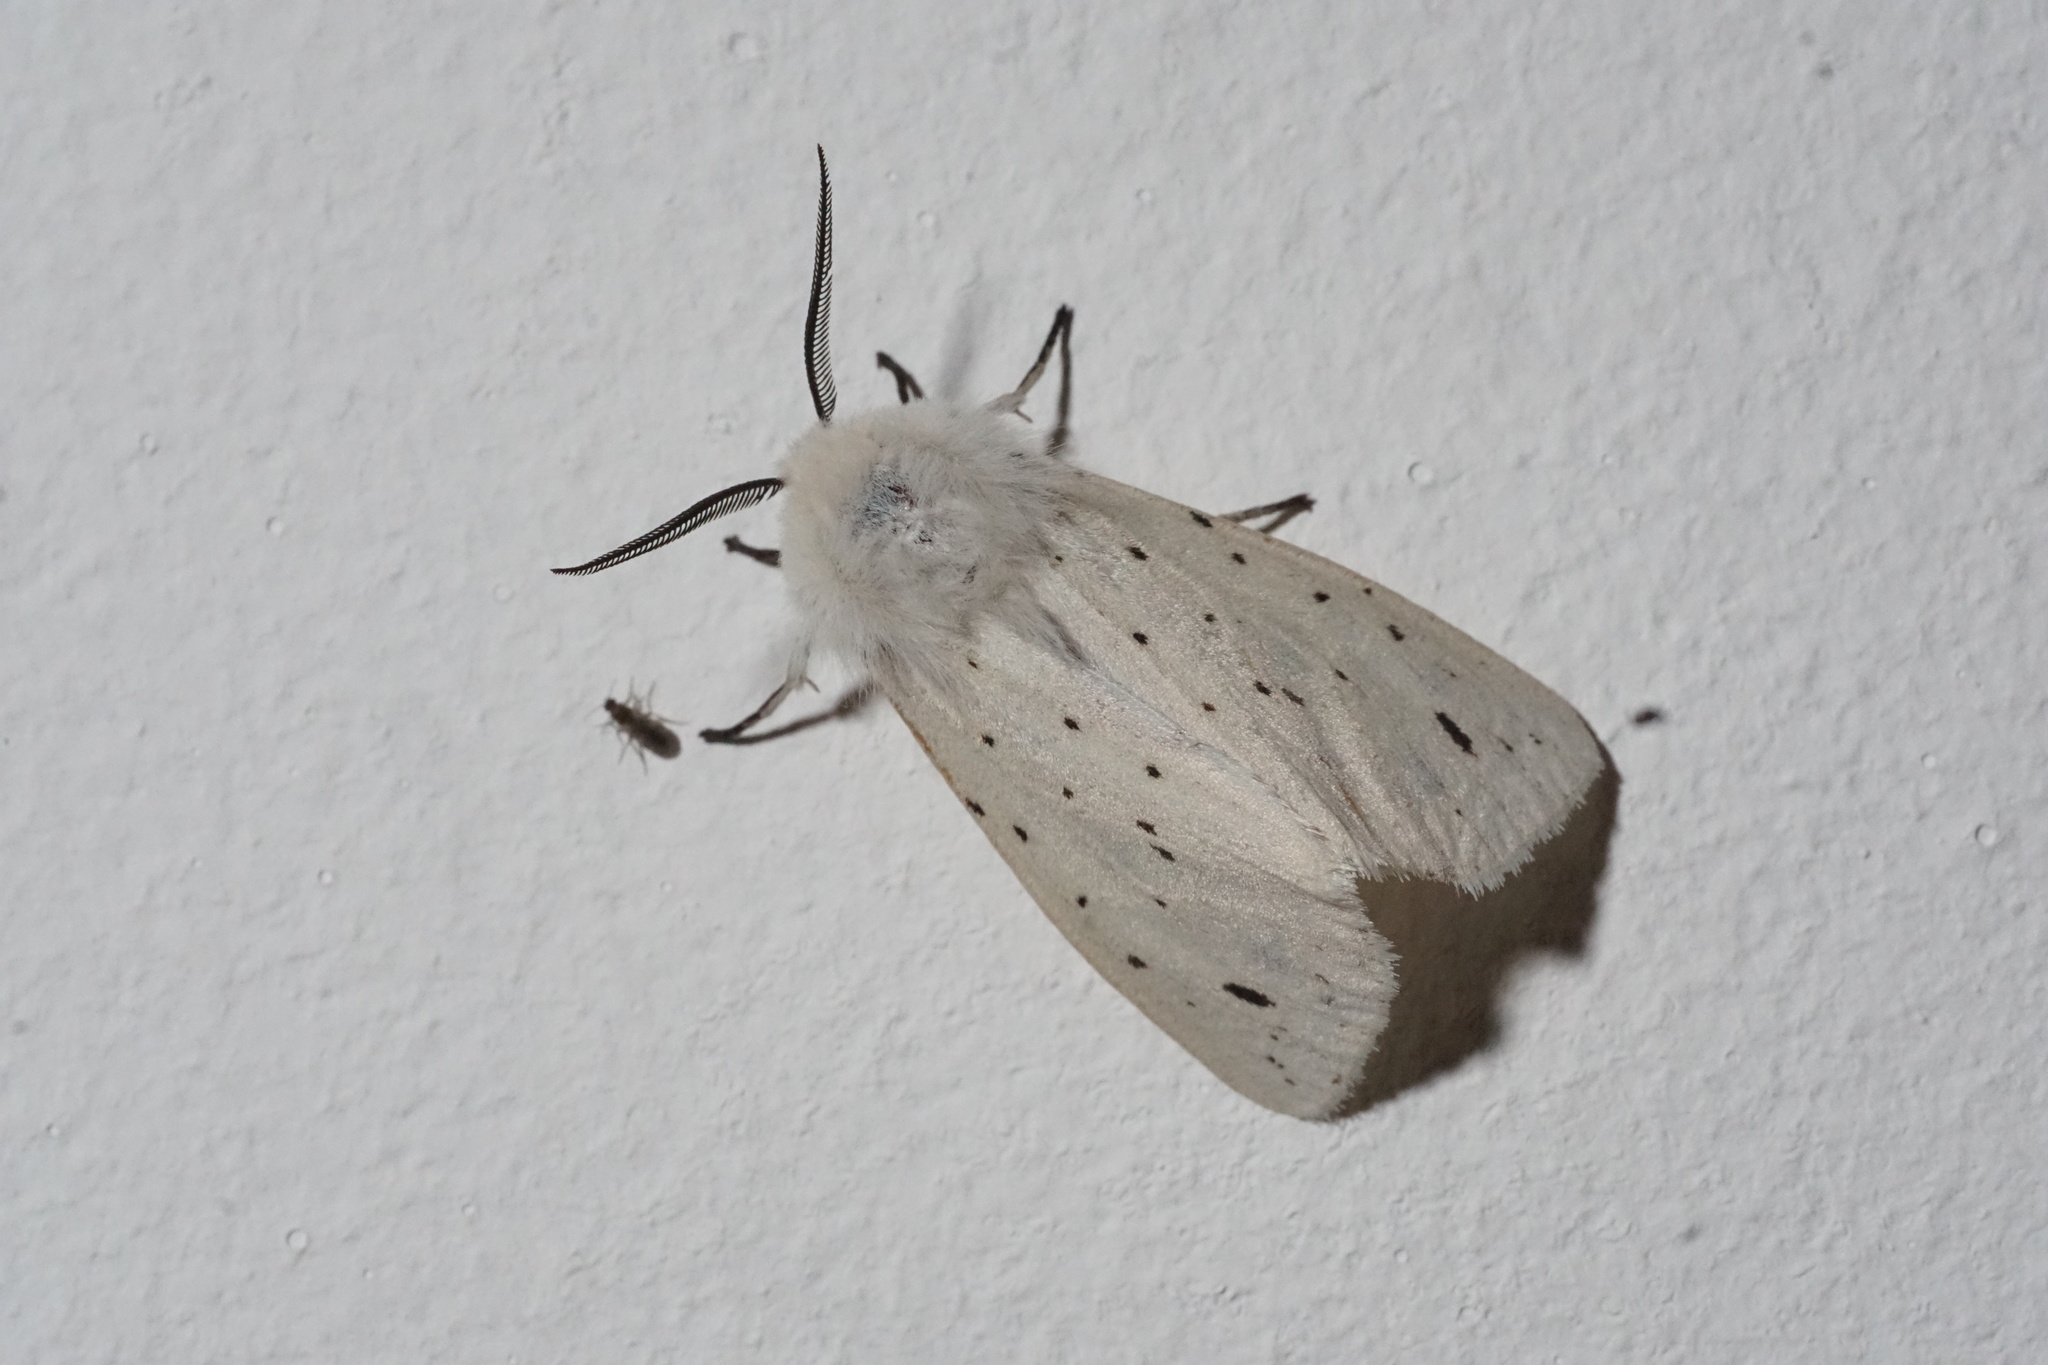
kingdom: Animalia
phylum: Arthropoda
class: Insecta
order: Lepidoptera
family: Erebidae
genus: Spilosoma
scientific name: Spilosoma lubricipeda
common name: White ermine
